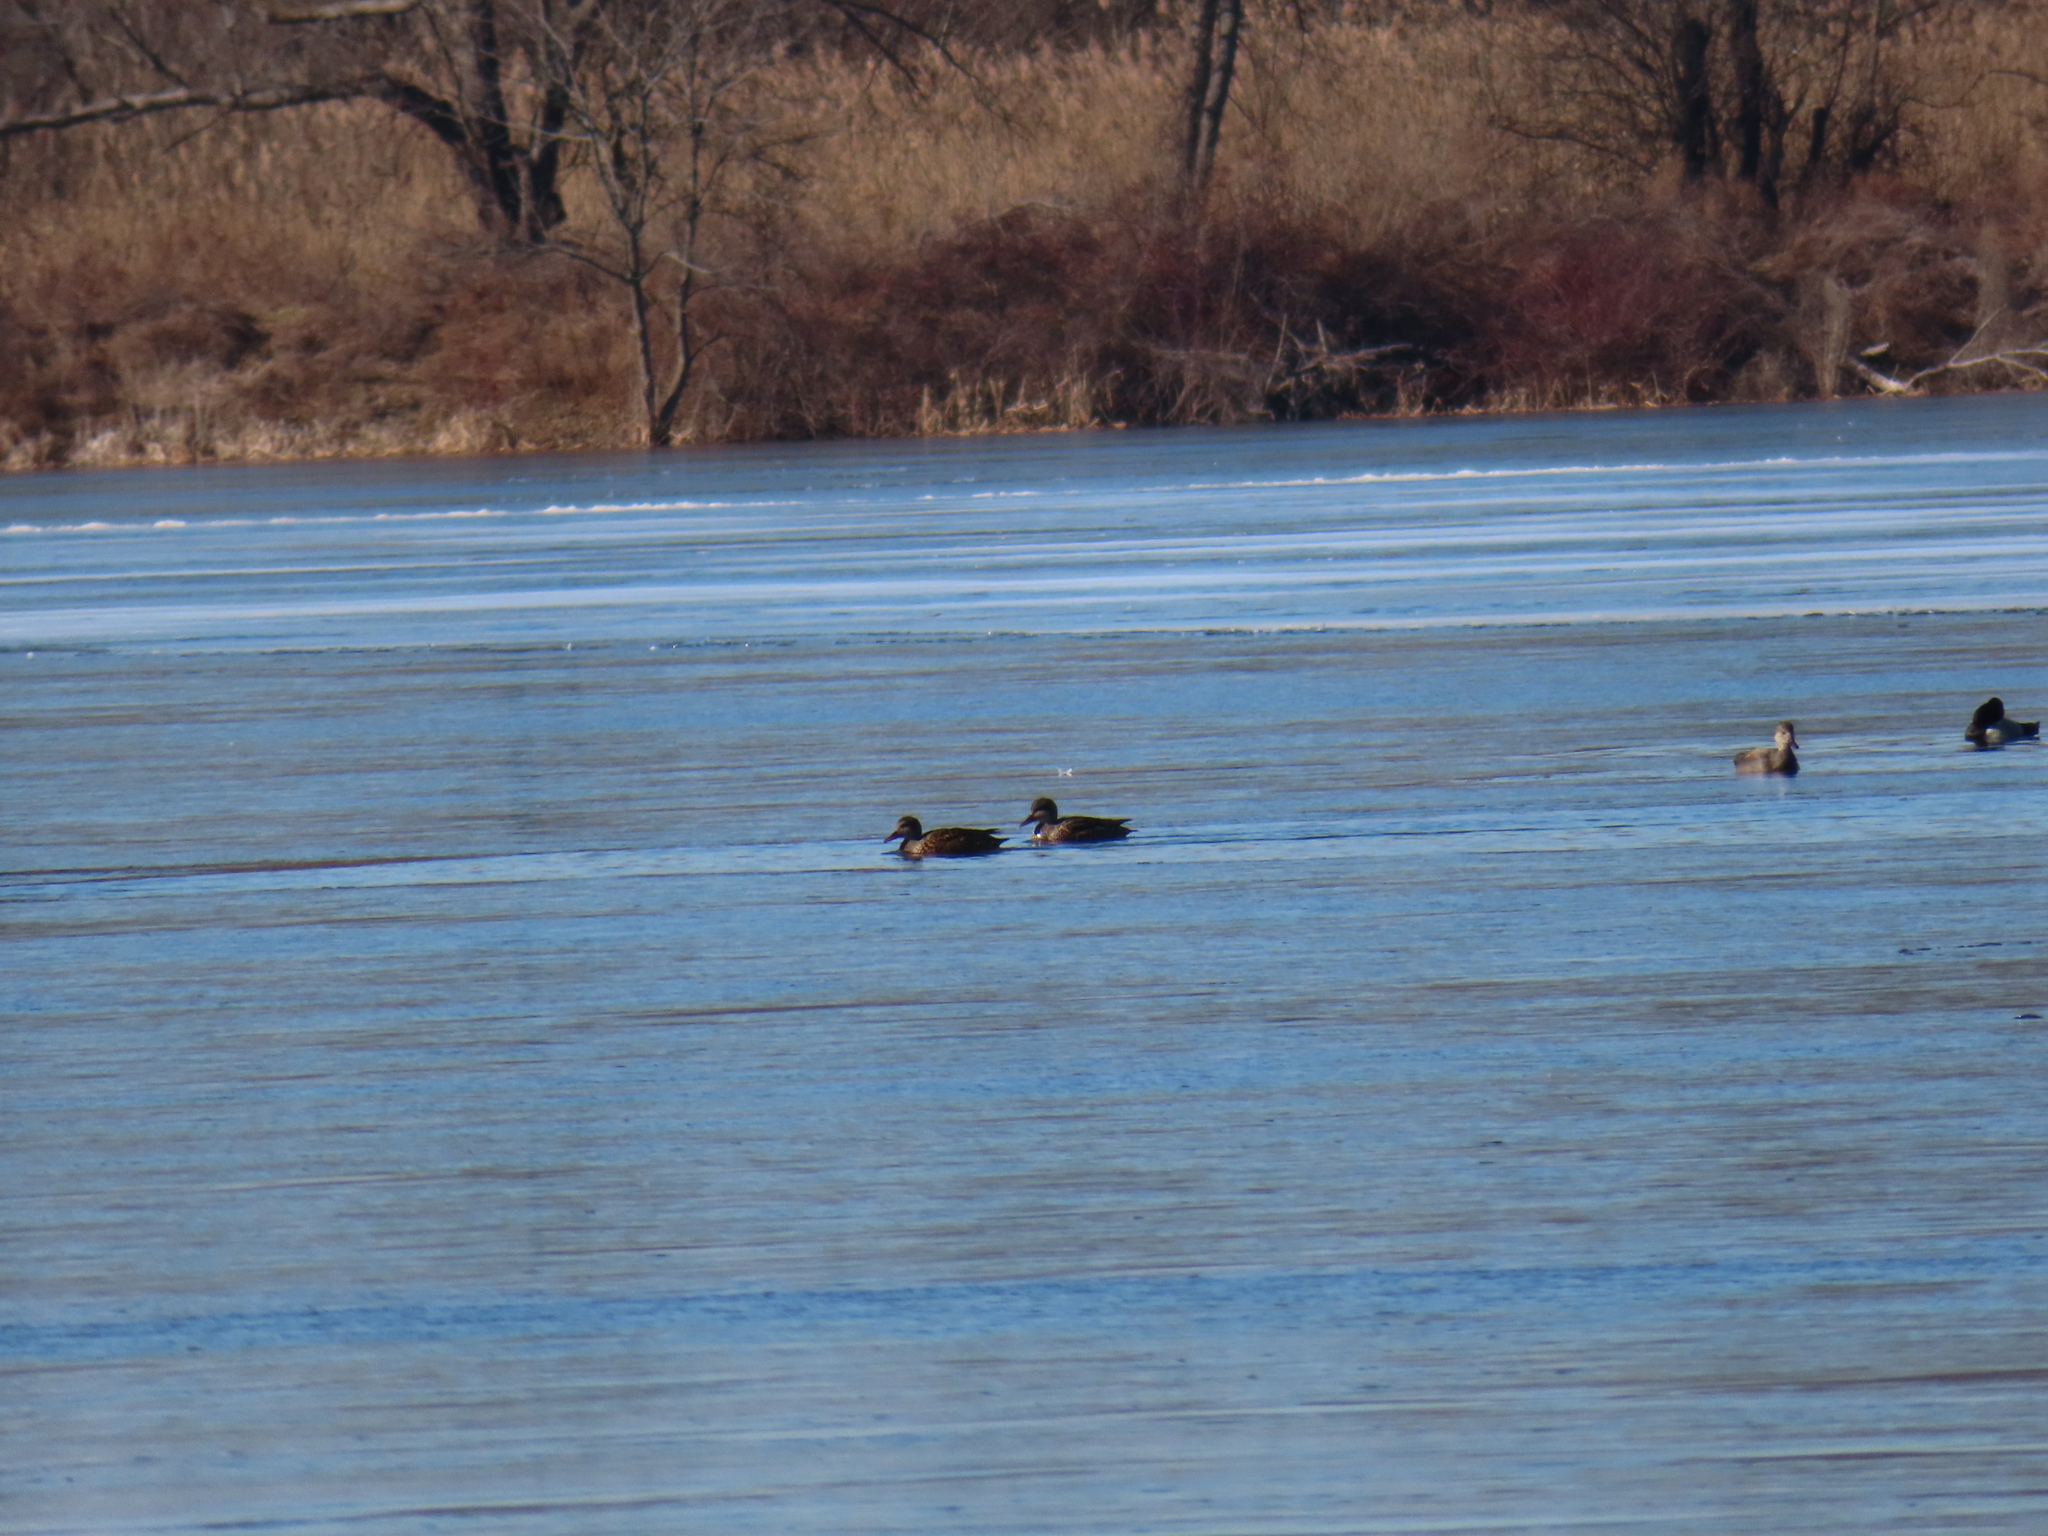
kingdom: Animalia
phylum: Chordata
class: Aves
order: Anseriformes
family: Anatidae
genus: Mareca
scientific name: Mareca strepera
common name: Gadwall
